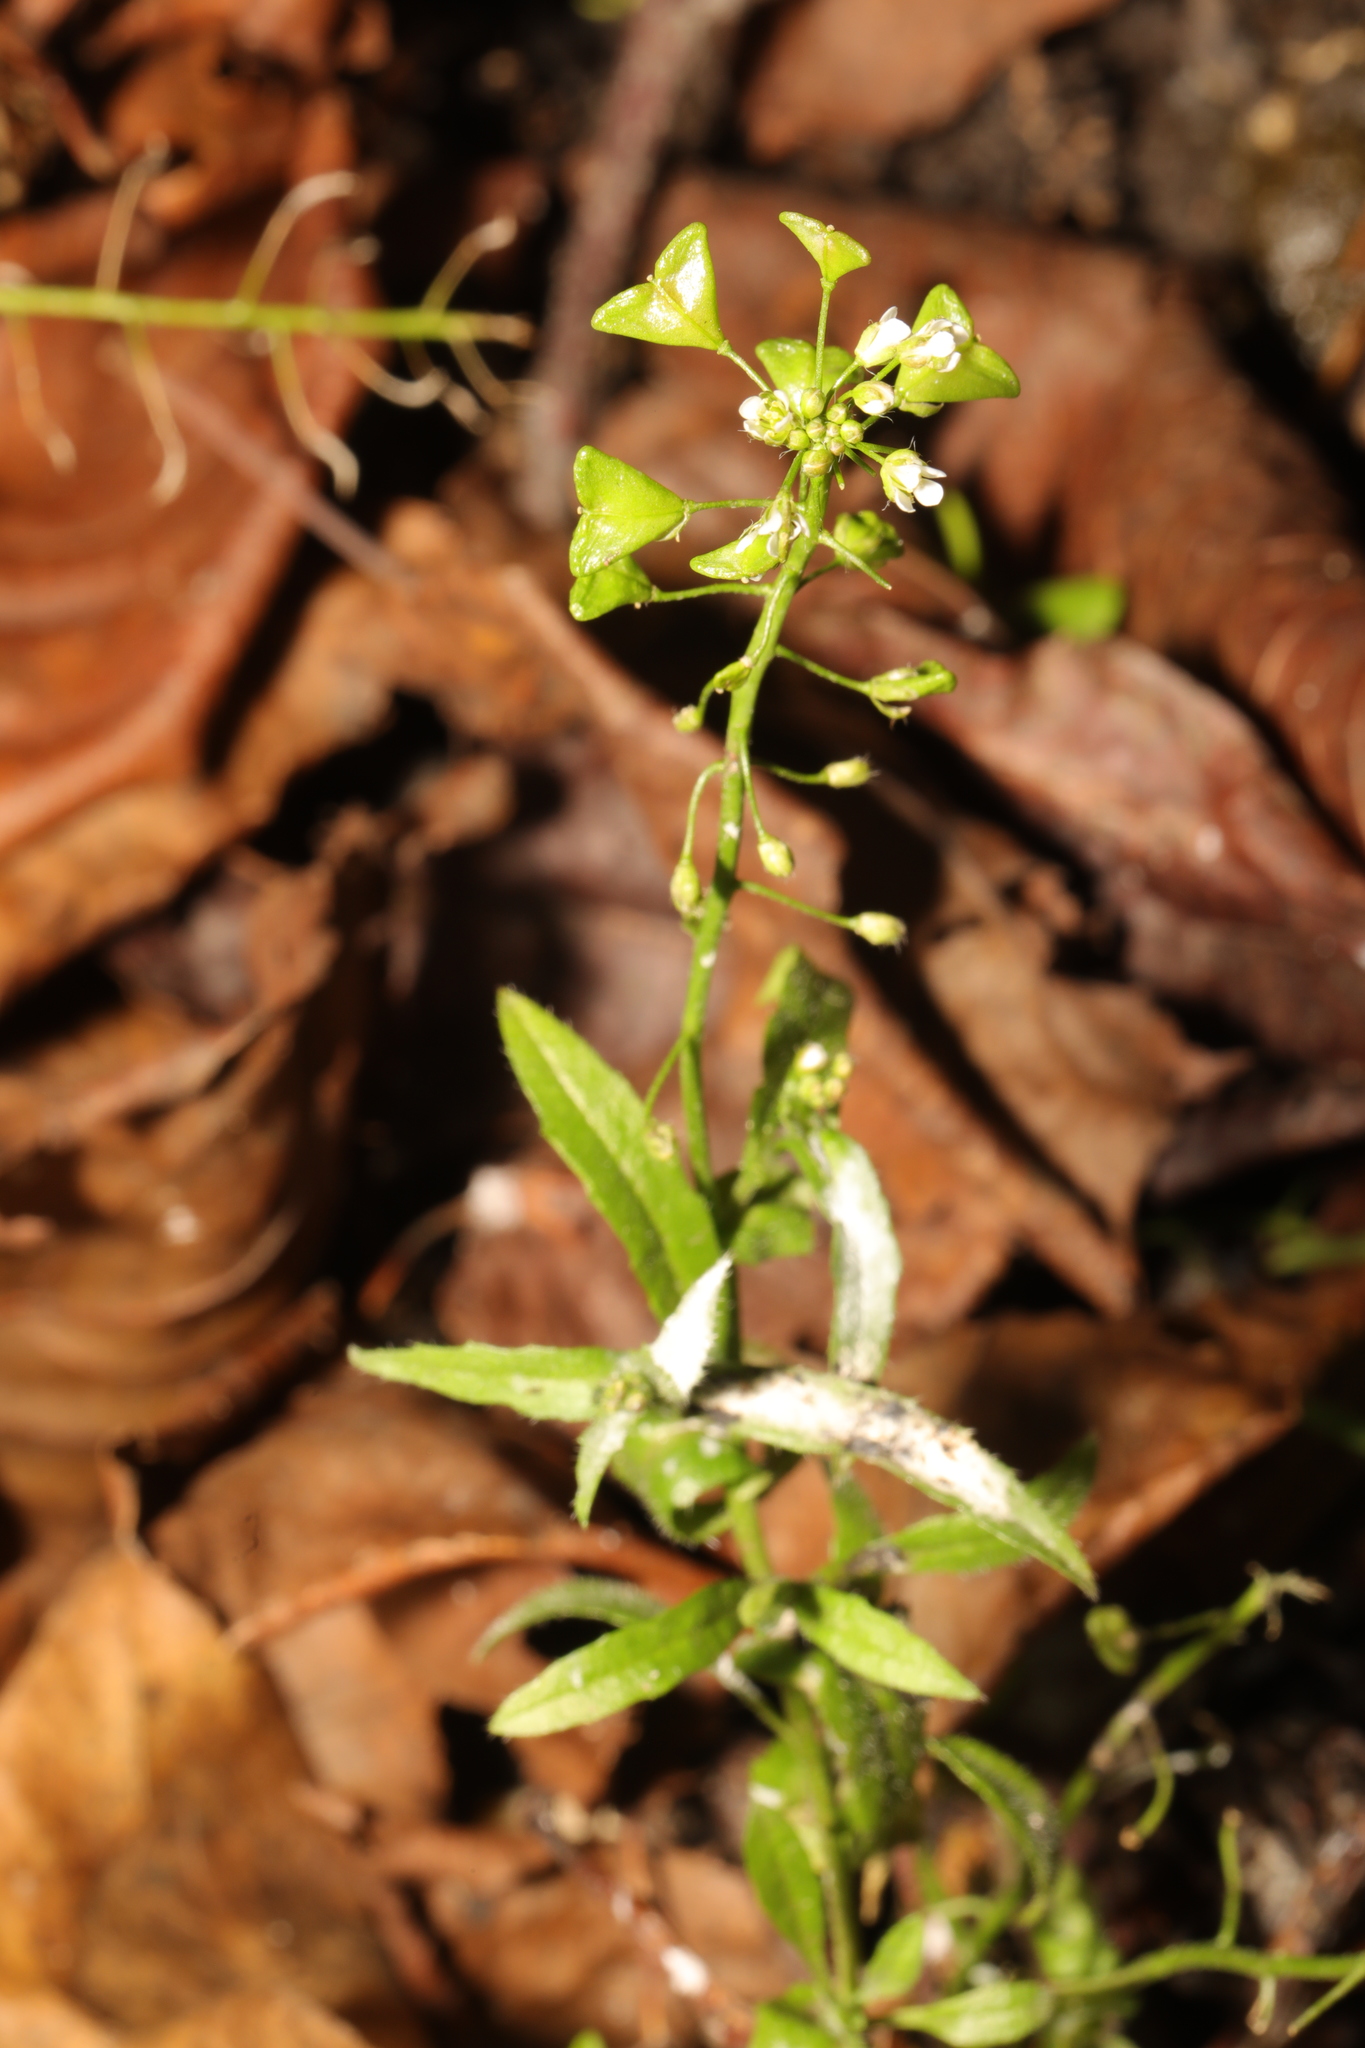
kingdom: Plantae
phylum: Tracheophyta
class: Magnoliopsida
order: Brassicales
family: Brassicaceae
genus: Capsella
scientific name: Capsella bursa-pastoris
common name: Shepherd's purse
